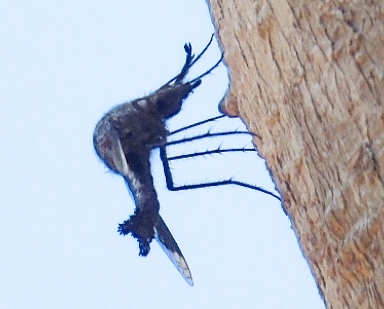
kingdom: Animalia
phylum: Arthropoda
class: Insecta
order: Diptera
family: Bombyliidae
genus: Lepidophora
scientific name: Lepidophora
